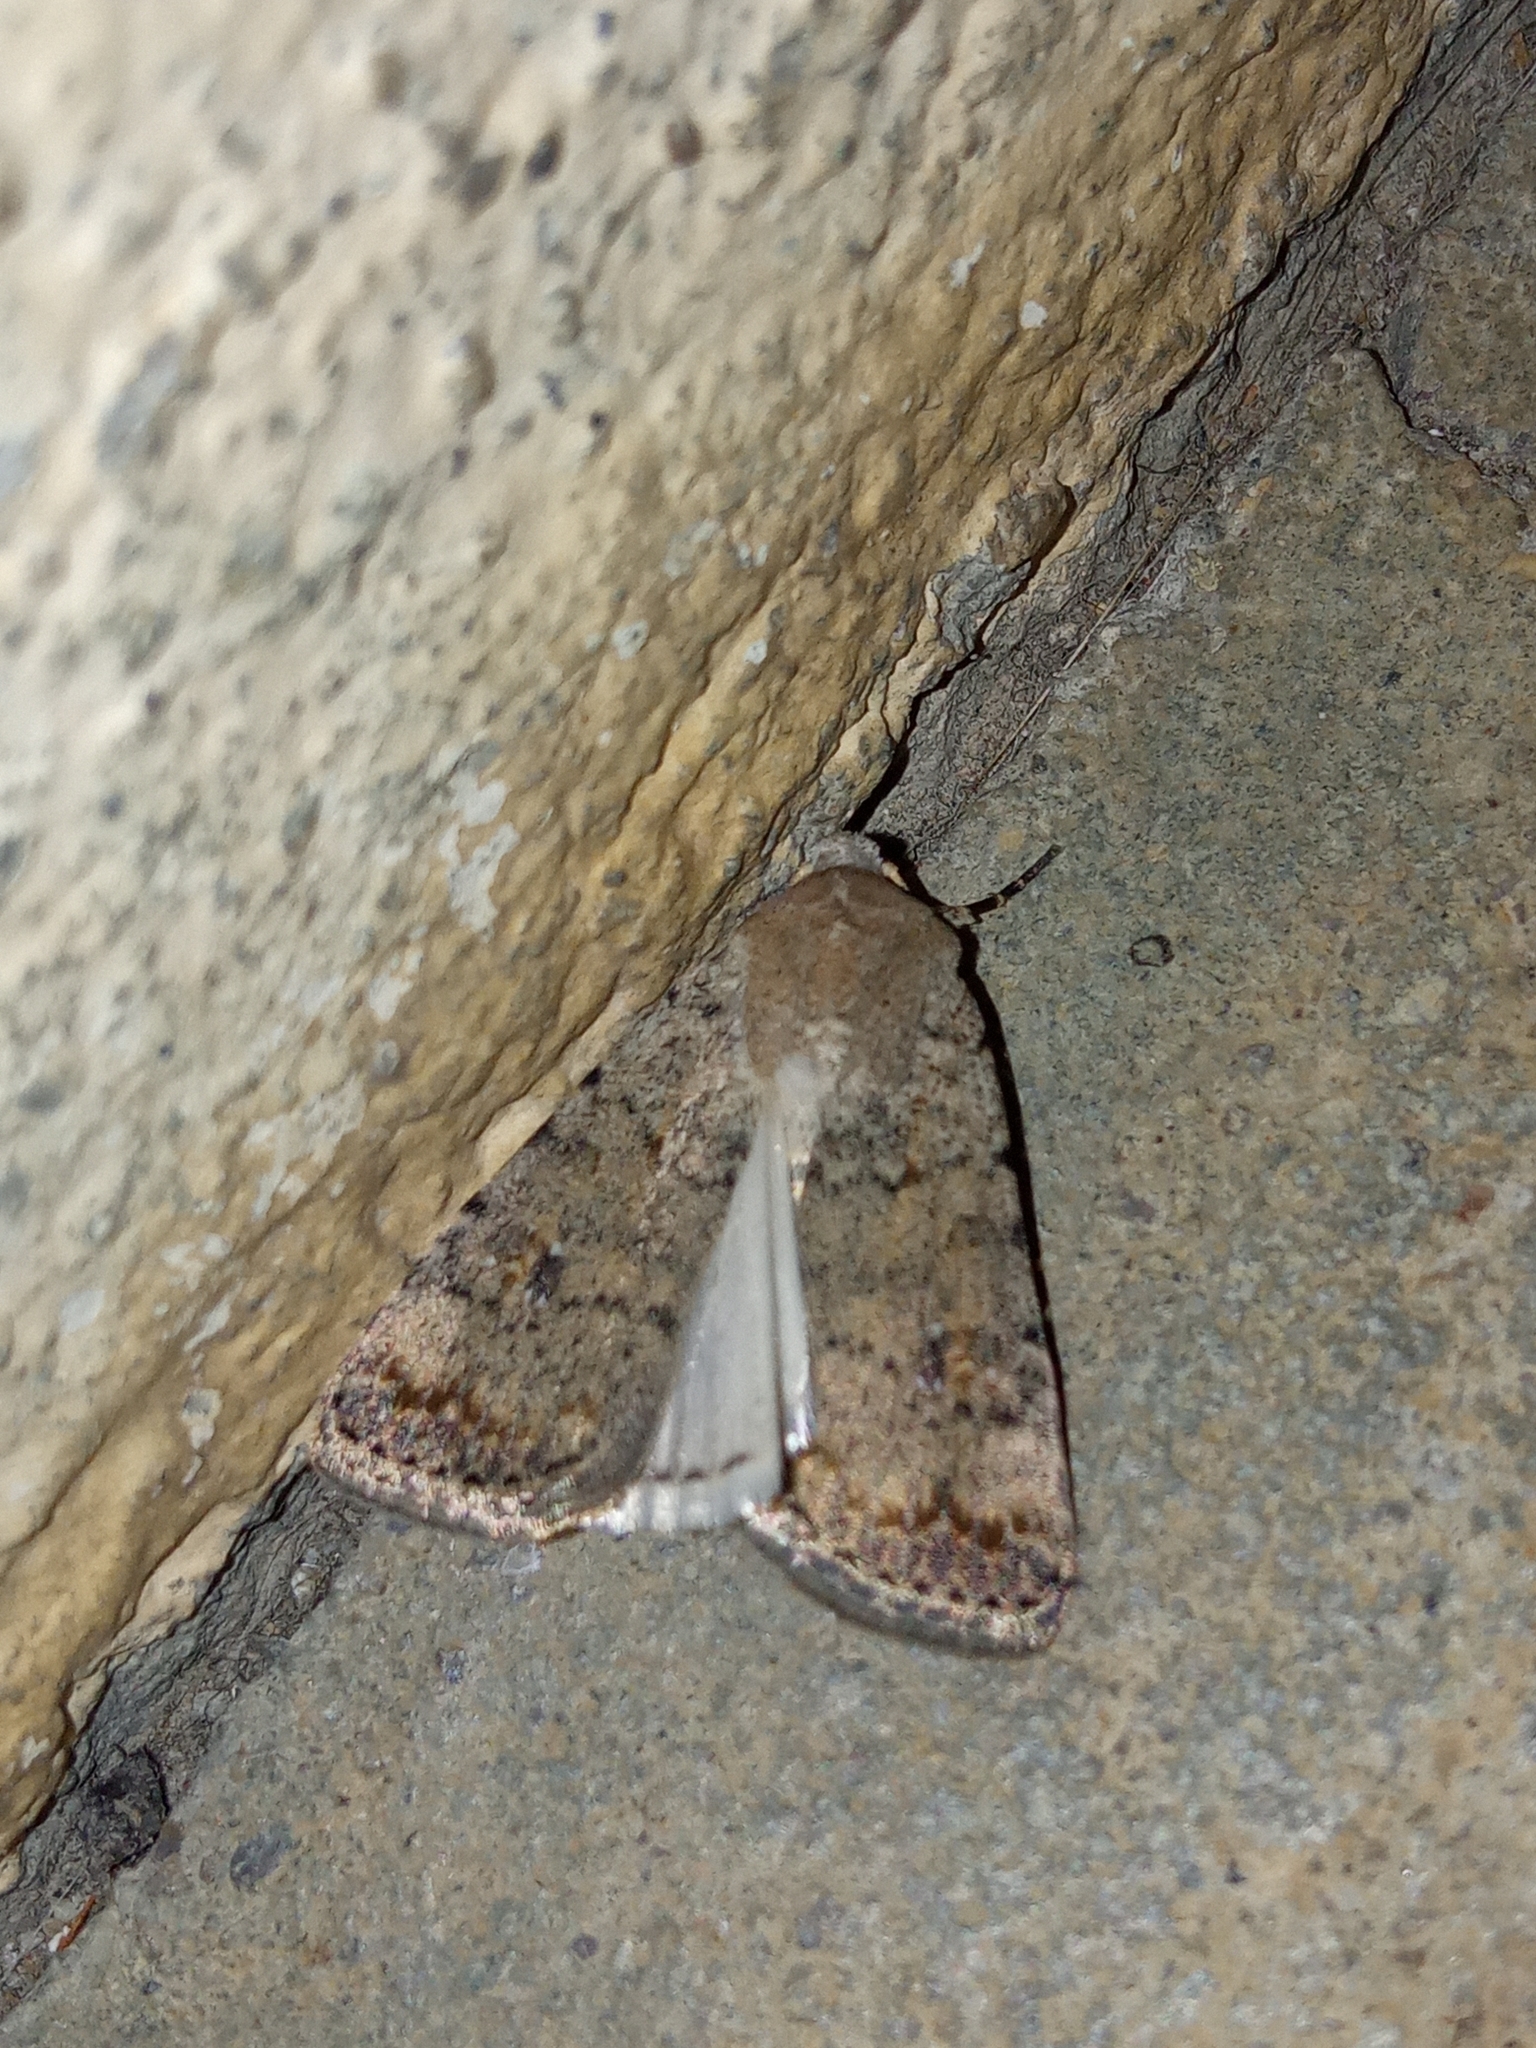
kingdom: Animalia
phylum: Arthropoda
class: Insecta
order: Lepidoptera
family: Noctuidae
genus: Caradrina
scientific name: Caradrina clavipalpis
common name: Pale mottled willow
